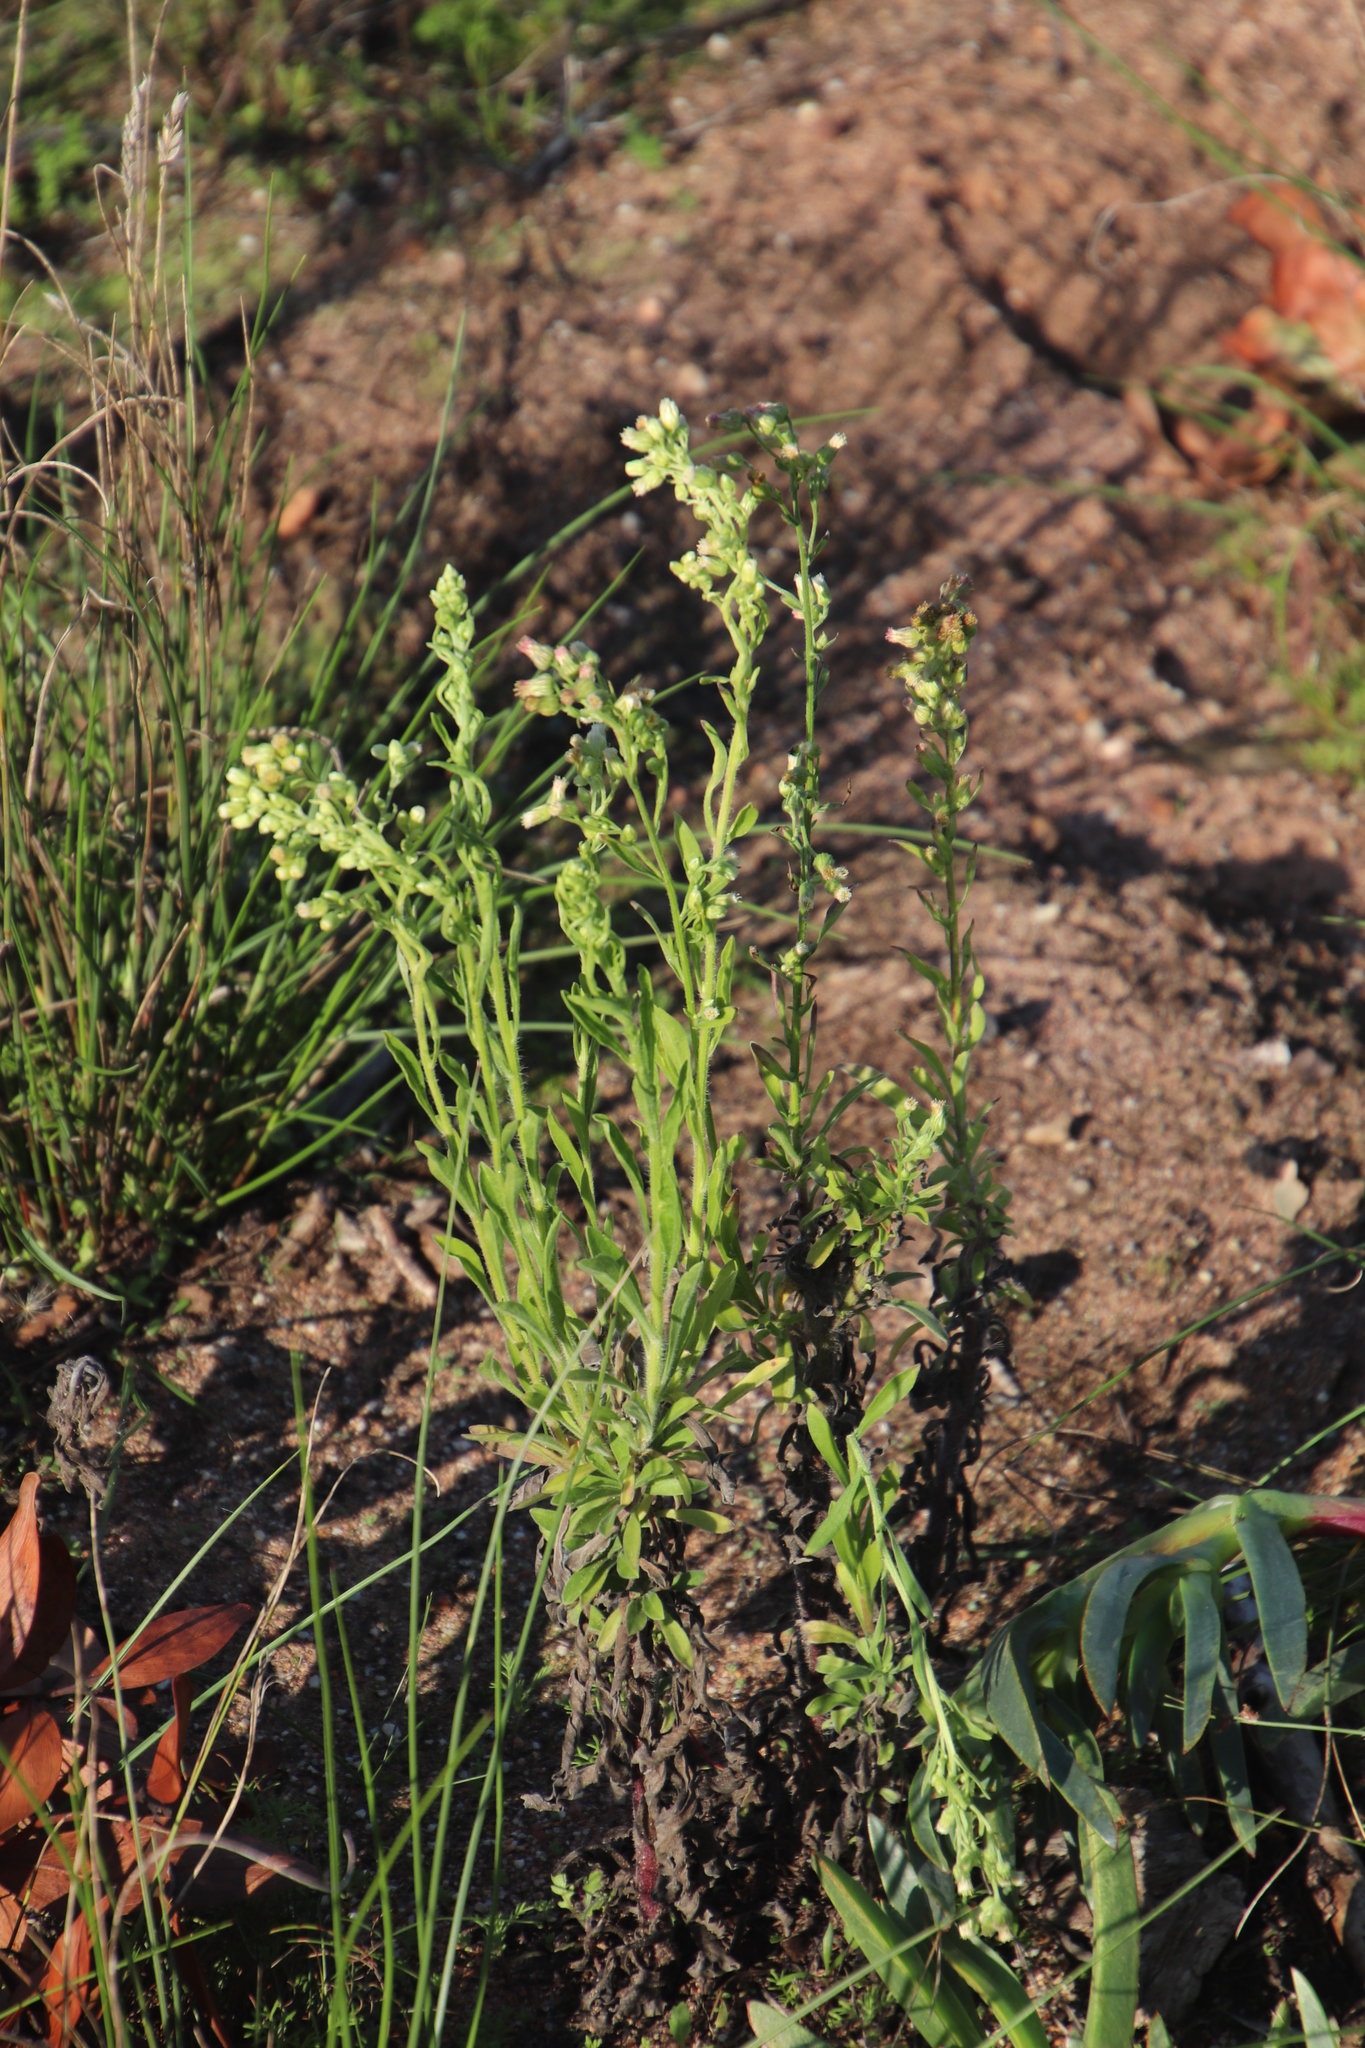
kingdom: Plantae
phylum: Tracheophyta
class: Magnoliopsida
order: Asterales
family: Asteraceae
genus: Erigeron
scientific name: Erigeron sumatrensis
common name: Daisy
